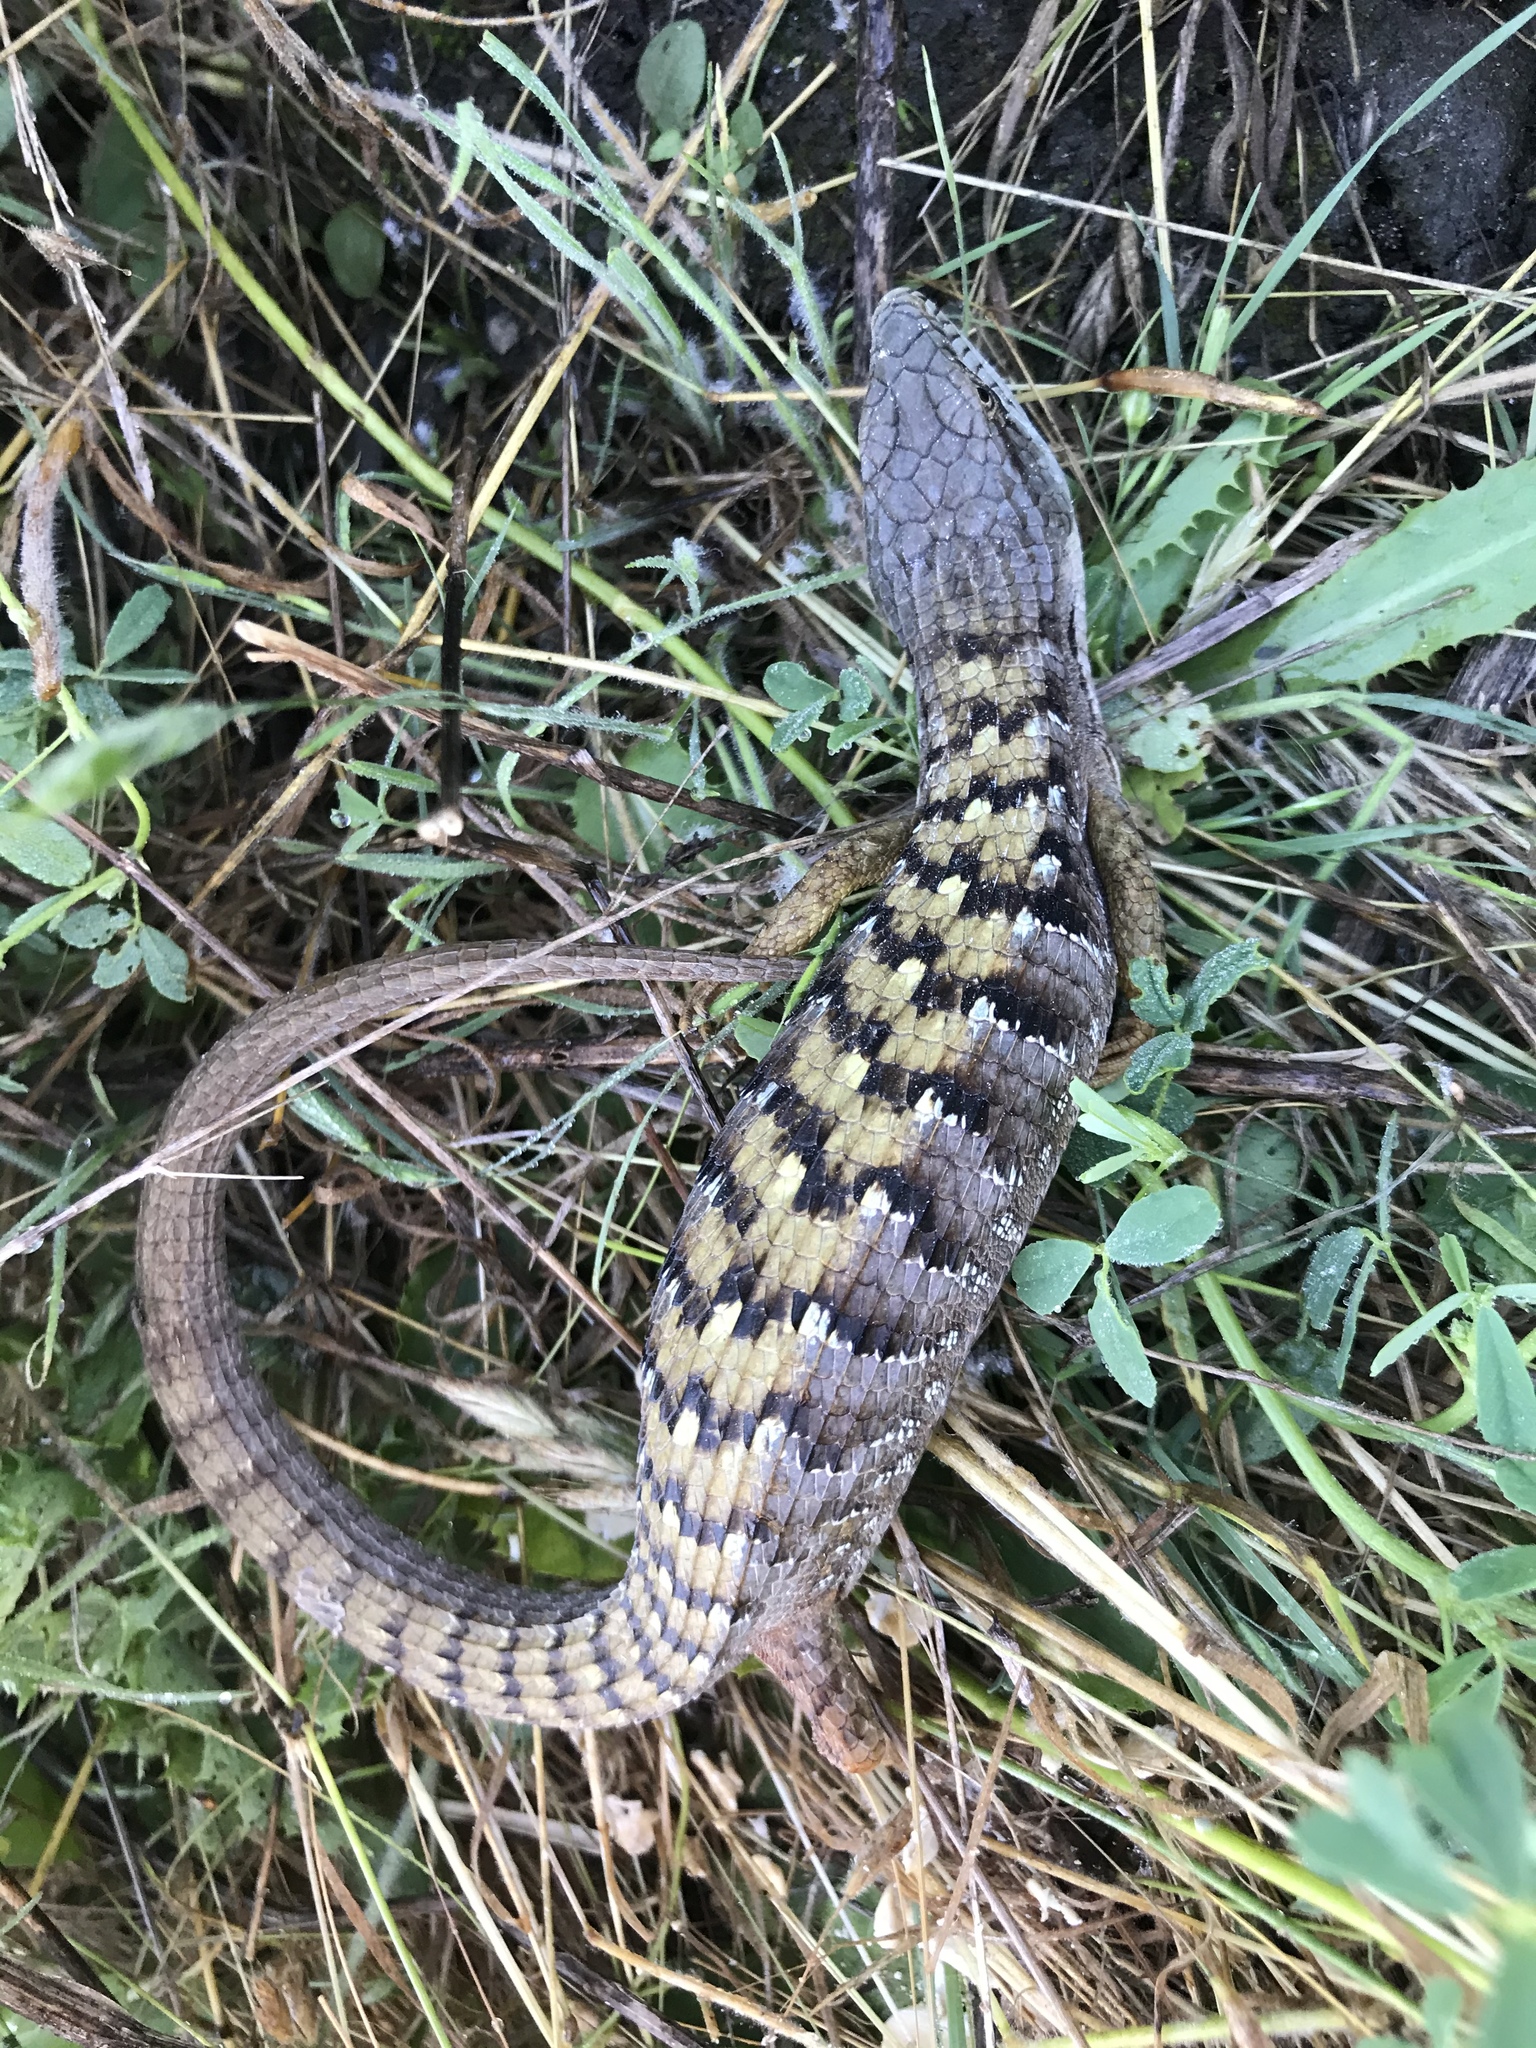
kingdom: Animalia
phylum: Chordata
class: Squamata
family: Anguidae
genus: Elgaria
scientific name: Elgaria multicarinata
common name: Southern alligator lizard
